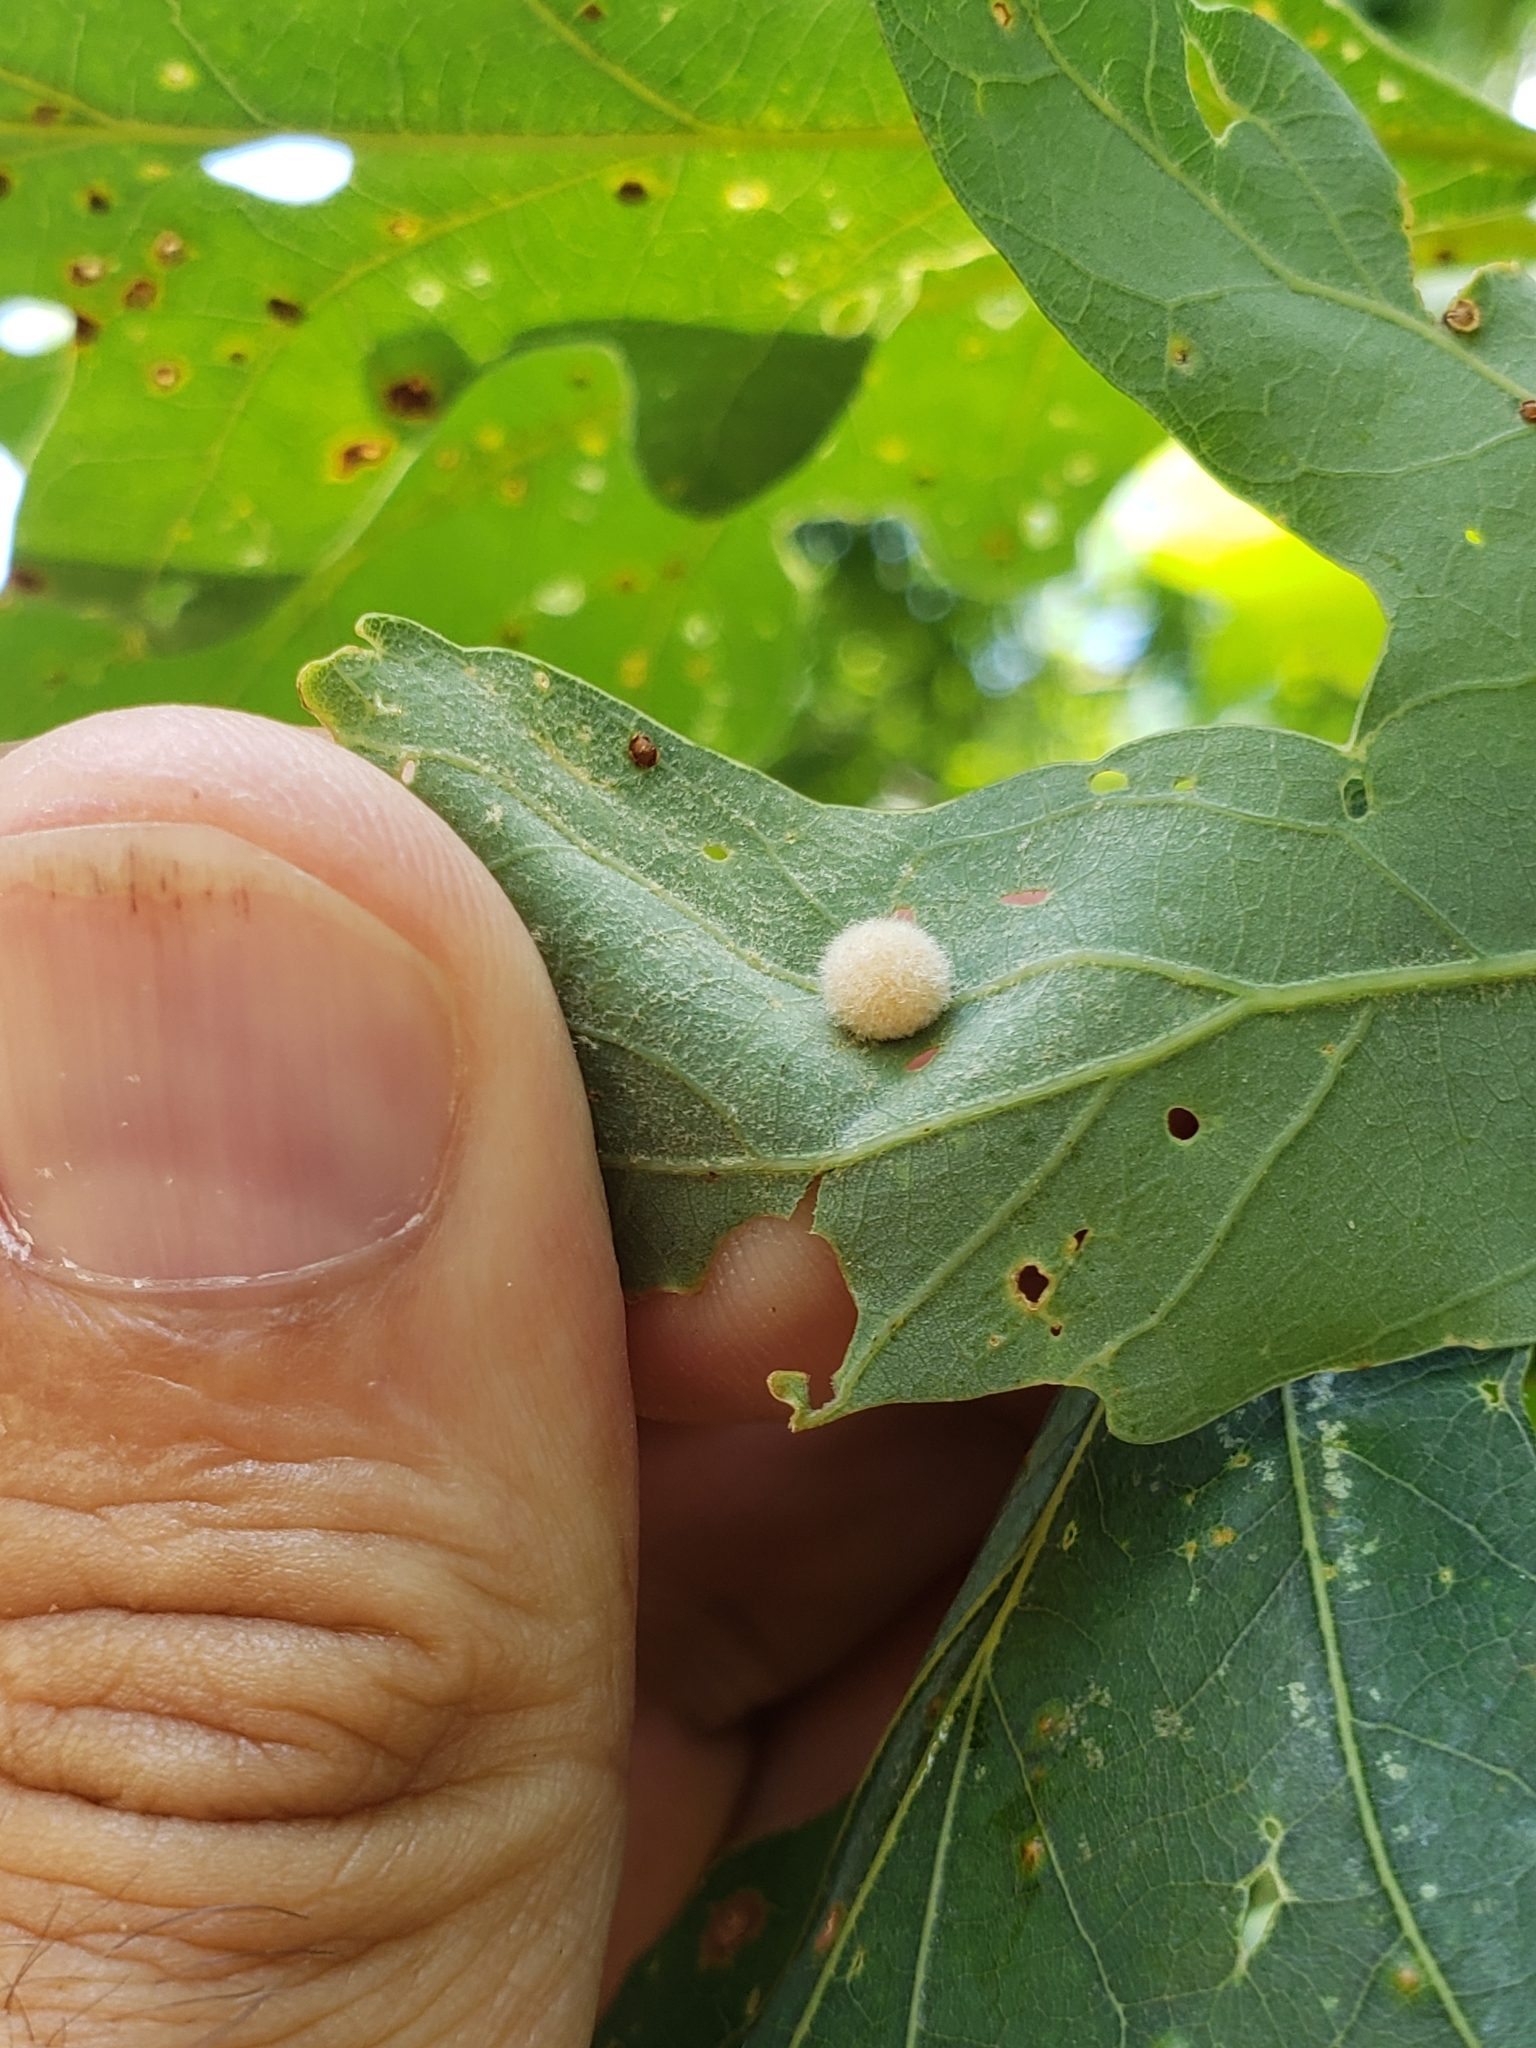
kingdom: Animalia
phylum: Arthropoda
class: Insecta
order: Hymenoptera
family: Cynipidae
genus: Philonix
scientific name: Philonix fulvicollis
